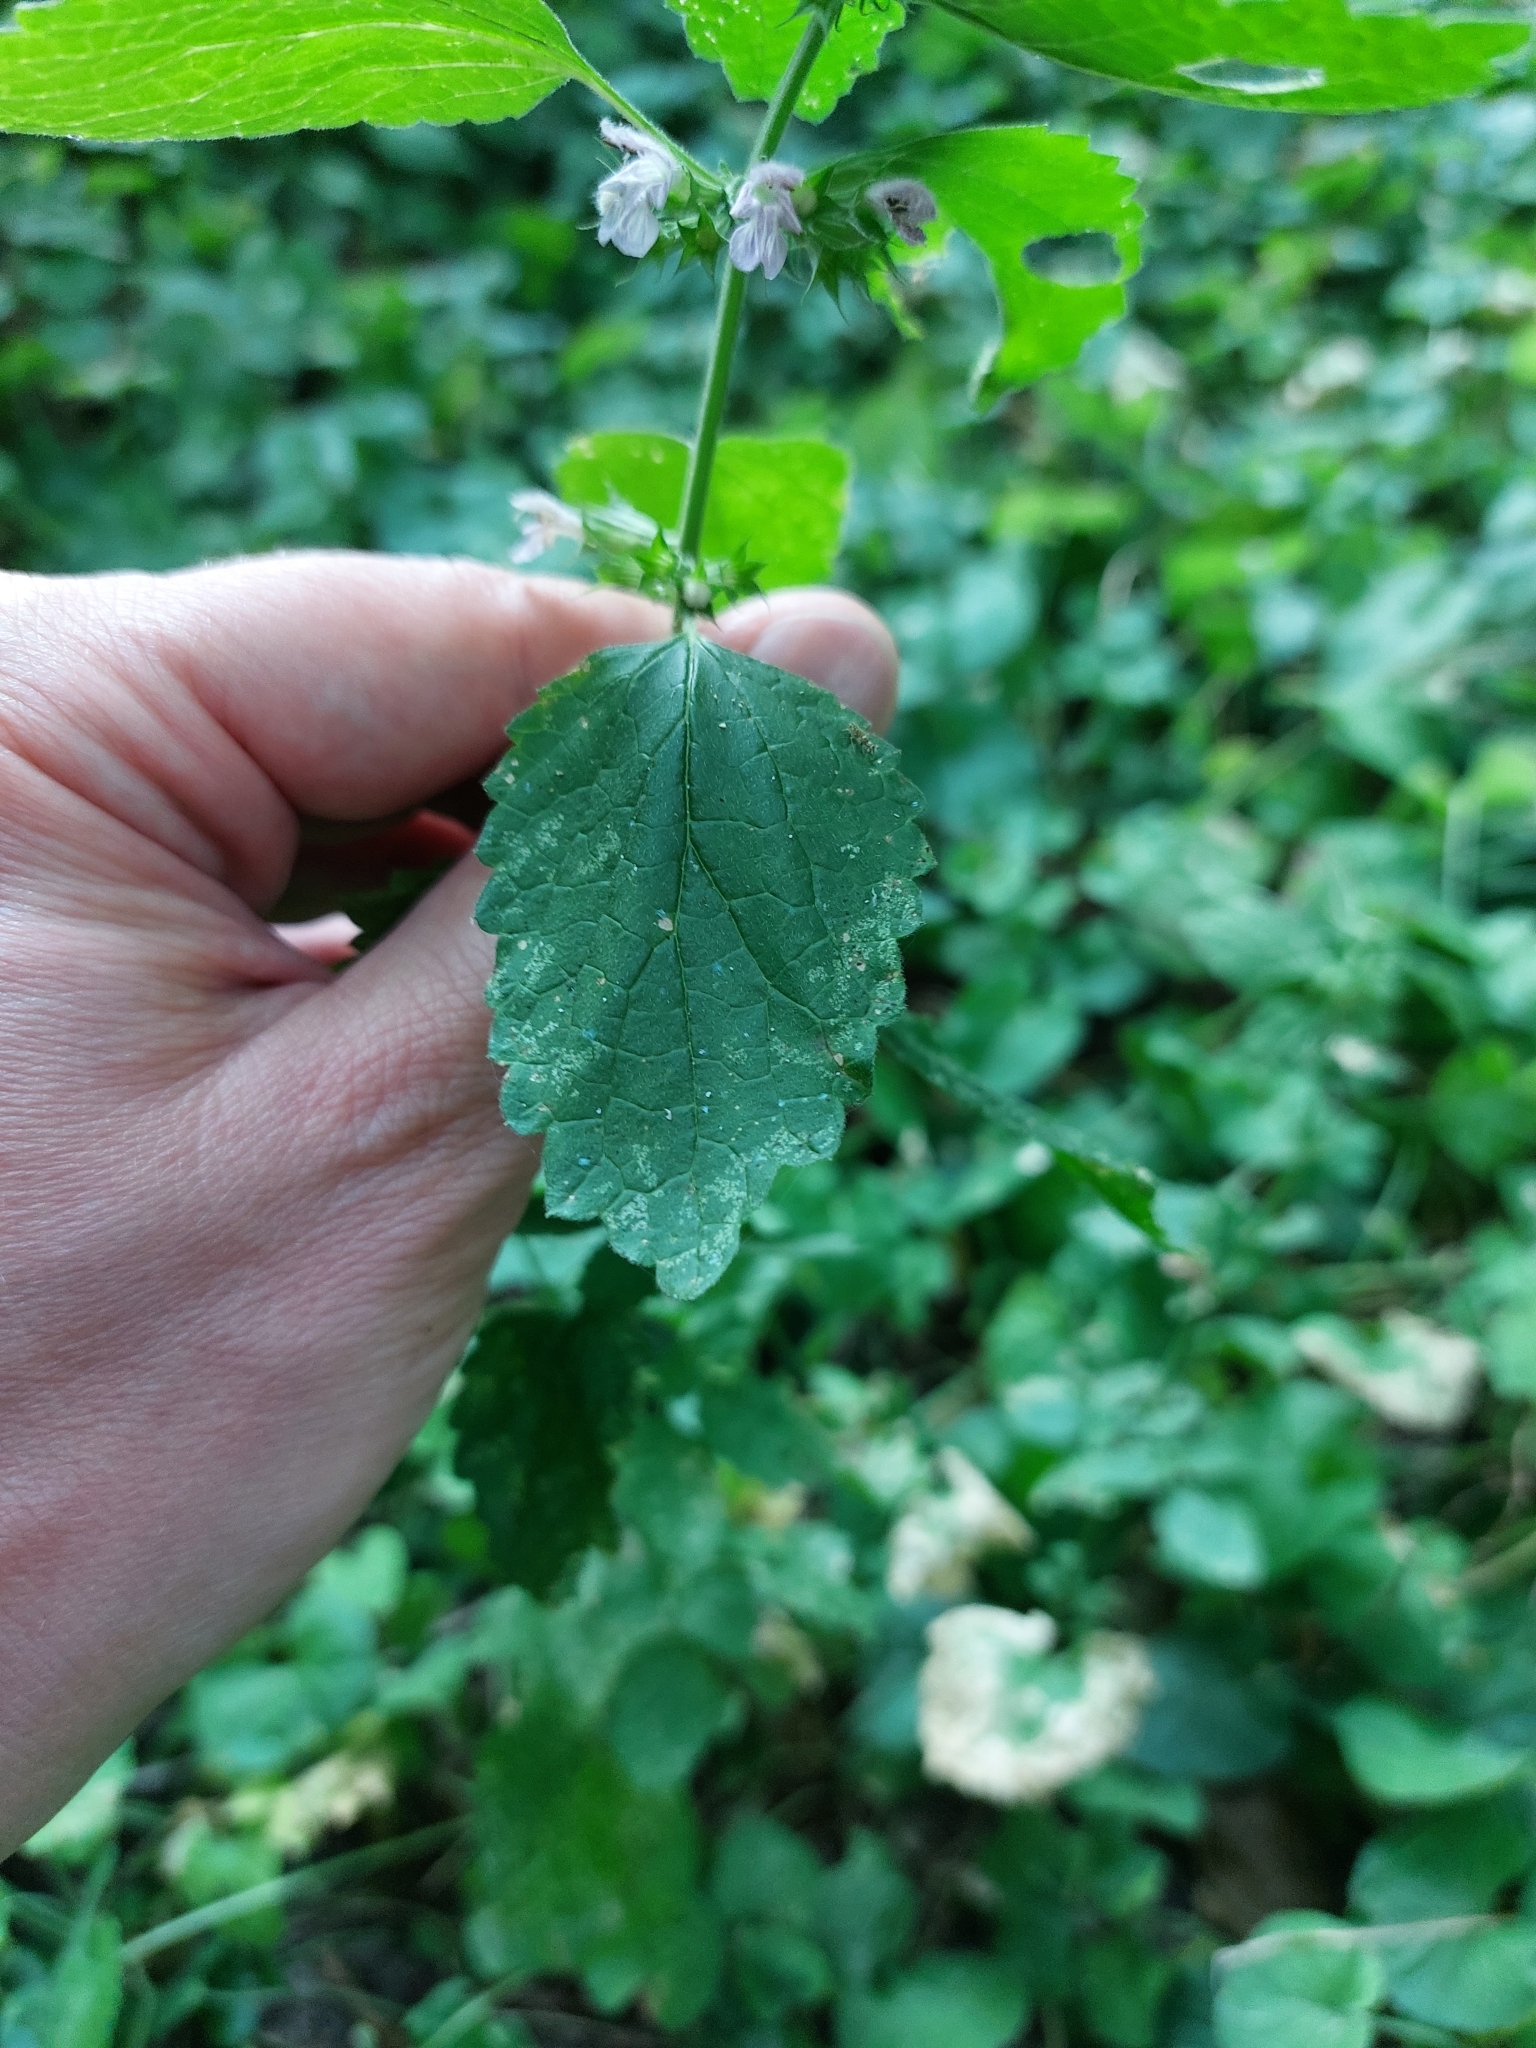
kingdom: Plantae
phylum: Tracheophyta
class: Magnoliopsida
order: Lamiales
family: Lamiaceae
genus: Ballota
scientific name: Ballota nigra
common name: Black horehound
